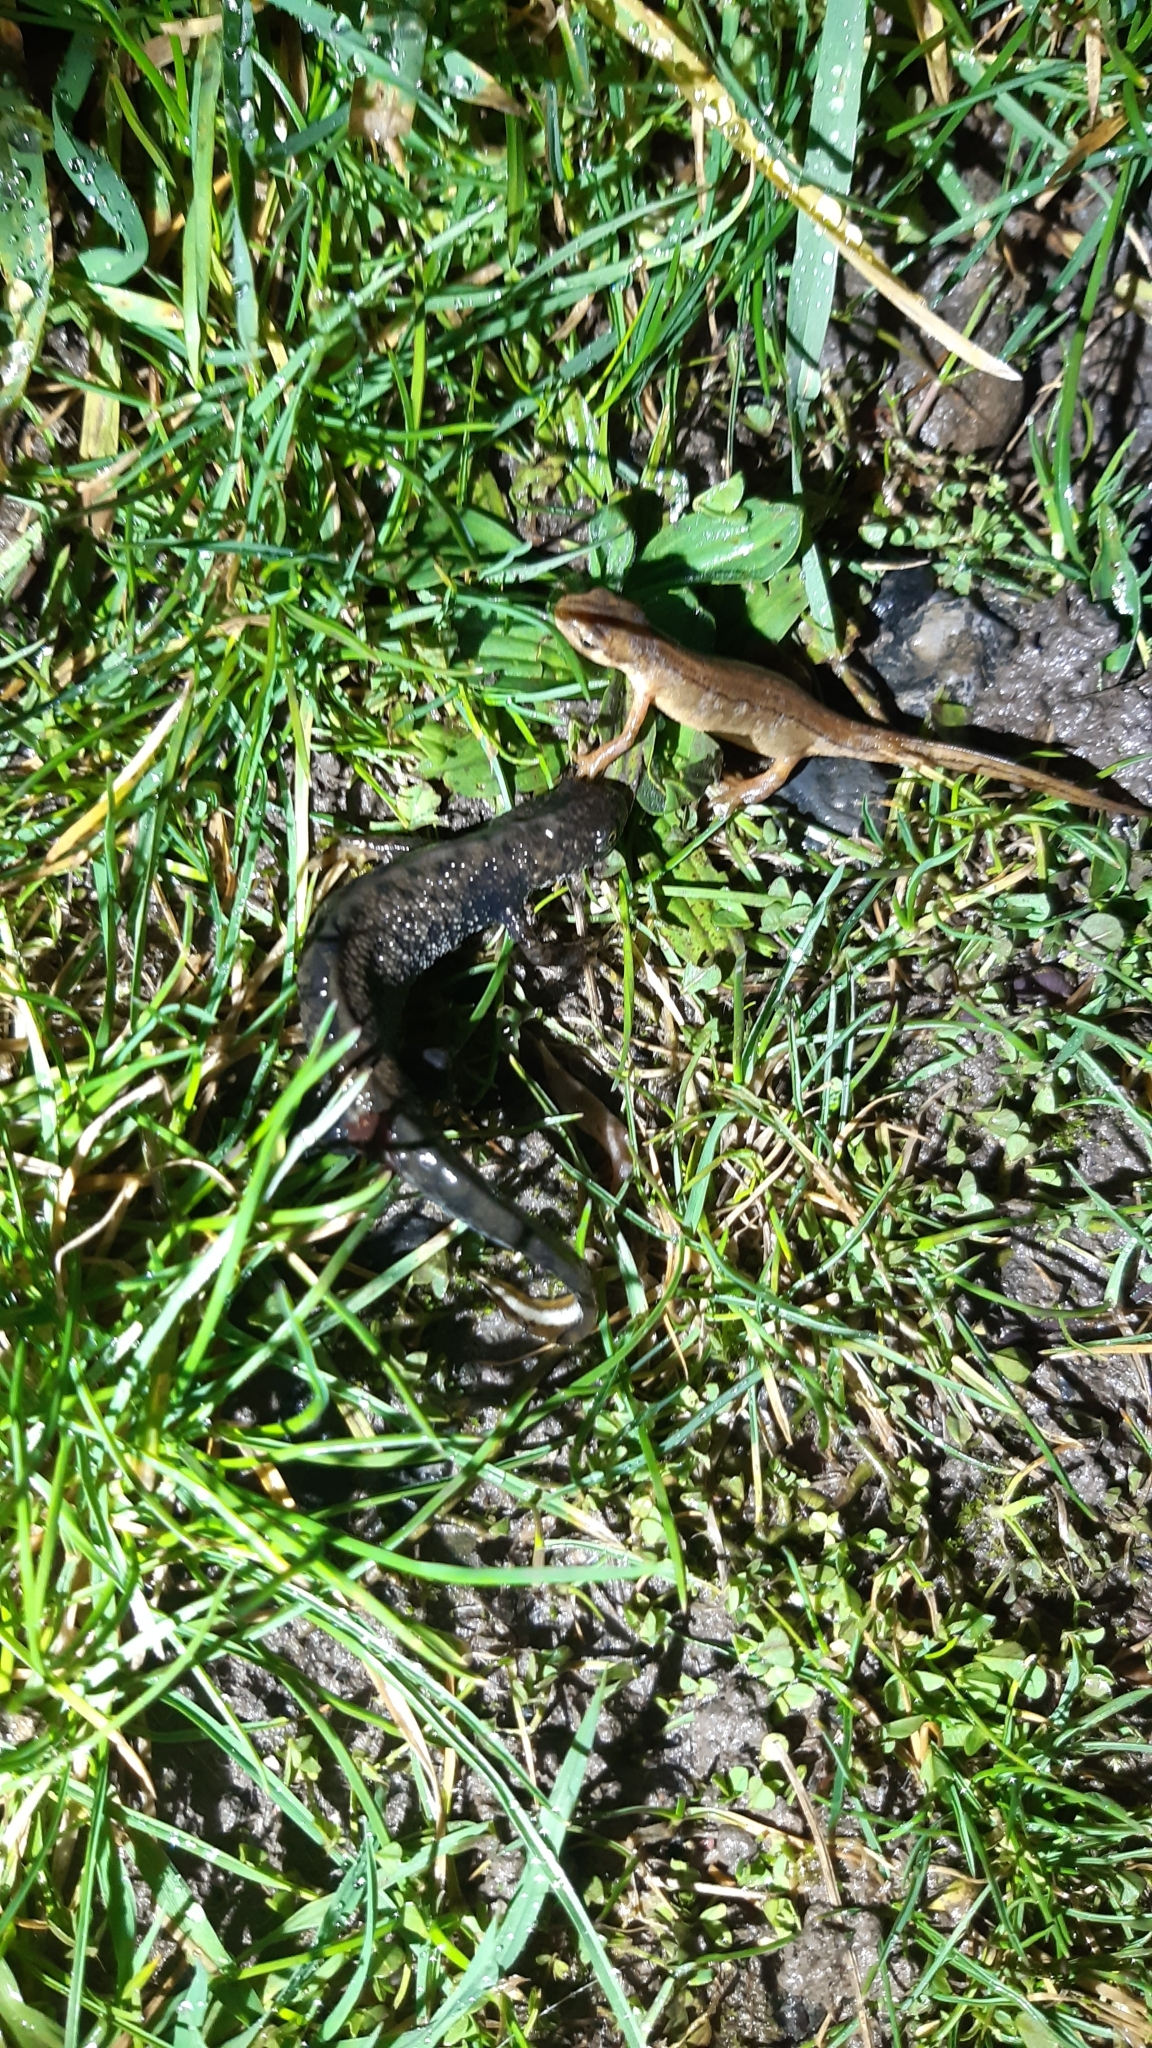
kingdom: Animalia
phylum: Chordata
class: Amphibia
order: Caudata
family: Salamandridae
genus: Lissotriton
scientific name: Lissotriton vulgaris
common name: Smooth newt
